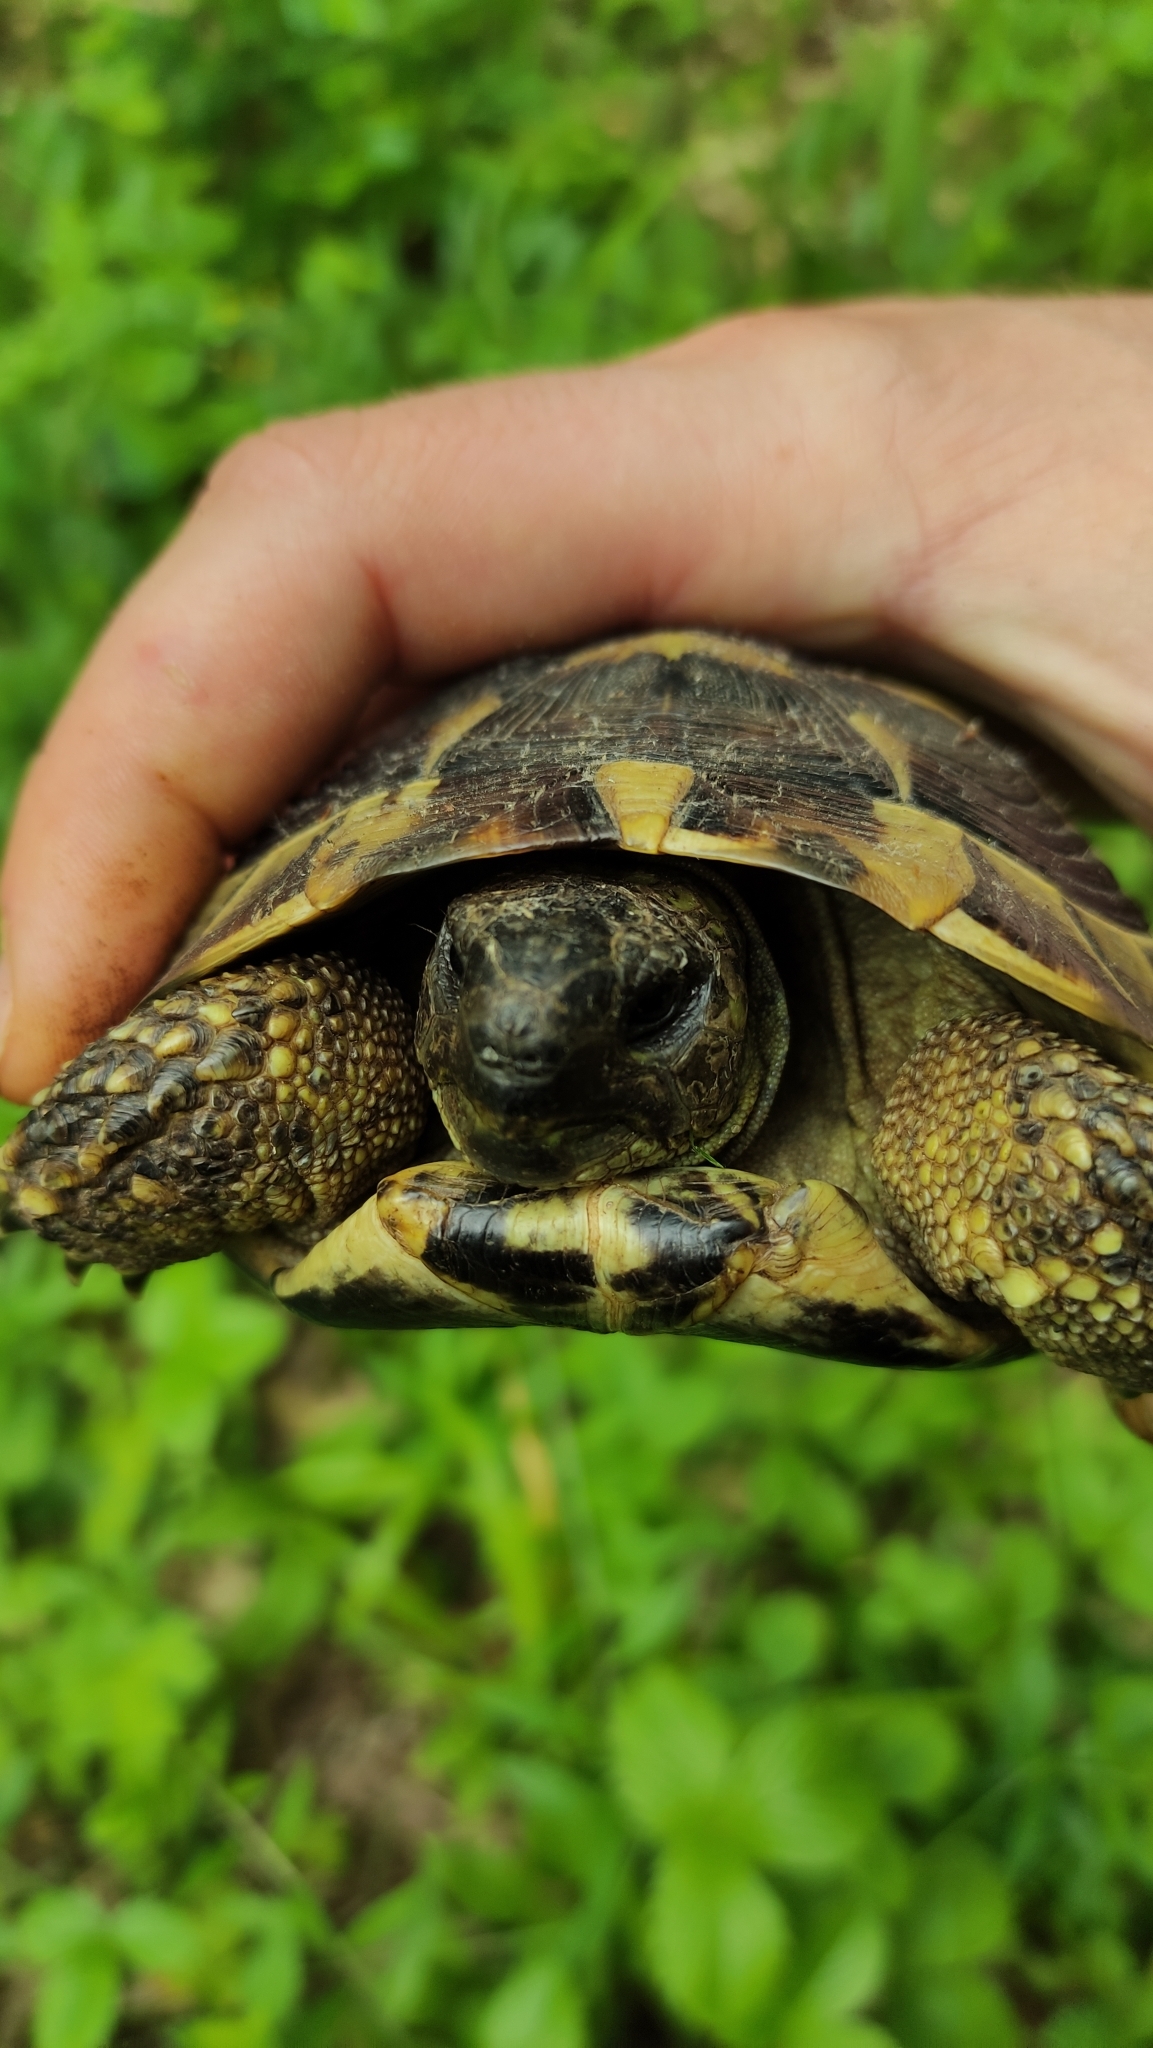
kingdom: Animalia
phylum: Chordata
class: Testudines
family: Testudinidae
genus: Testudo
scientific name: Testudo hermanni
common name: Hermann's tortoise
